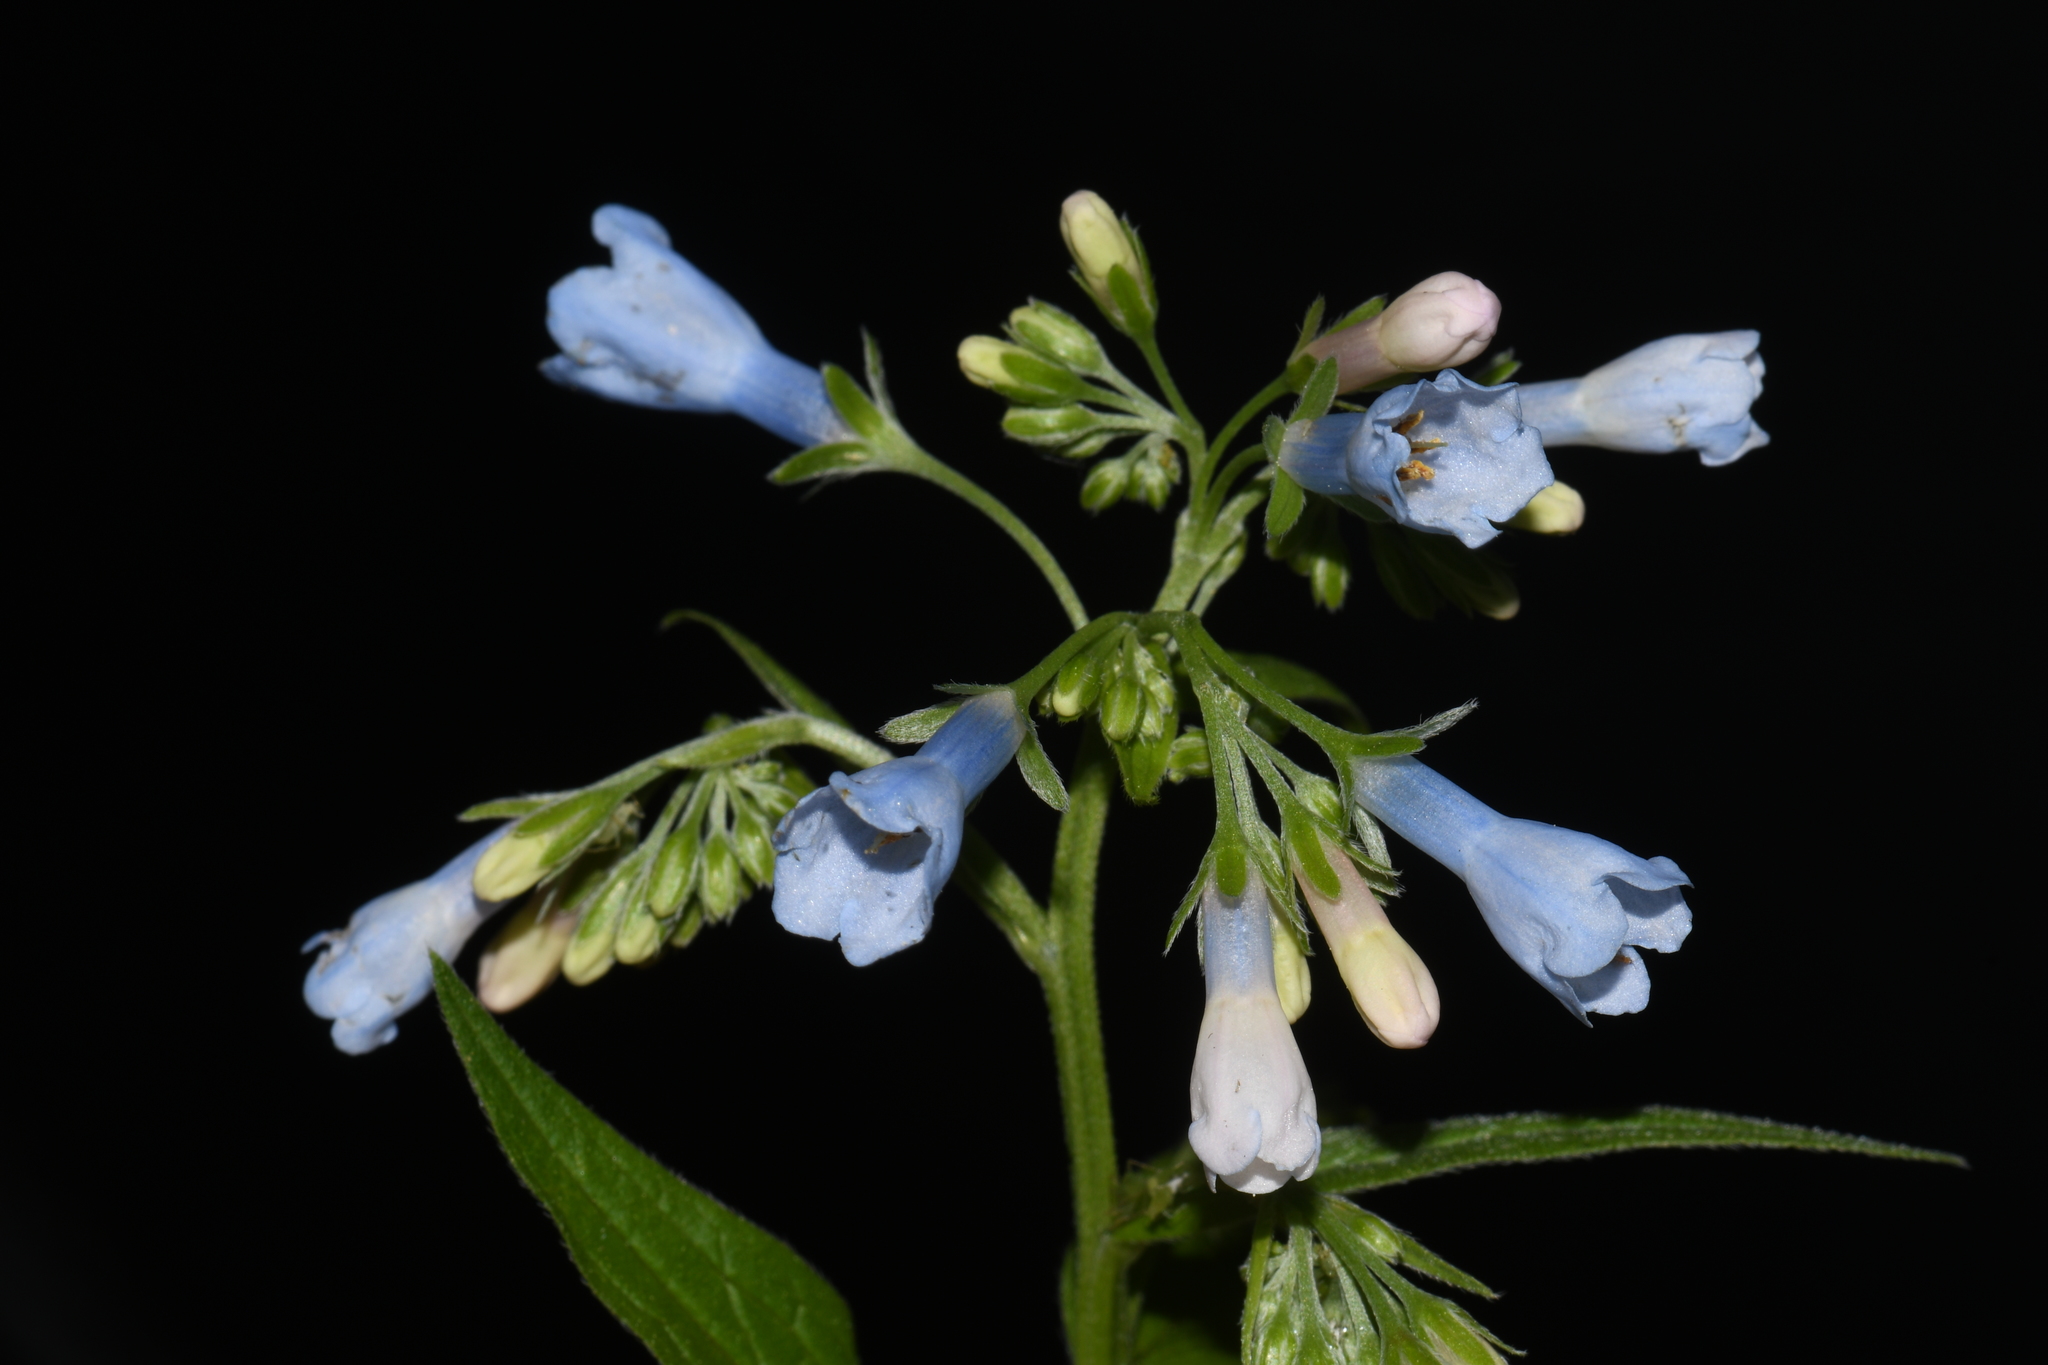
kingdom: Plantae
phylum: Tracheophyta
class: Magnoliopsida
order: Boraginales
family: Boraginaceae
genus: Mertensia
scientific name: Mertensia ciliata
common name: Tall chiming-bells
